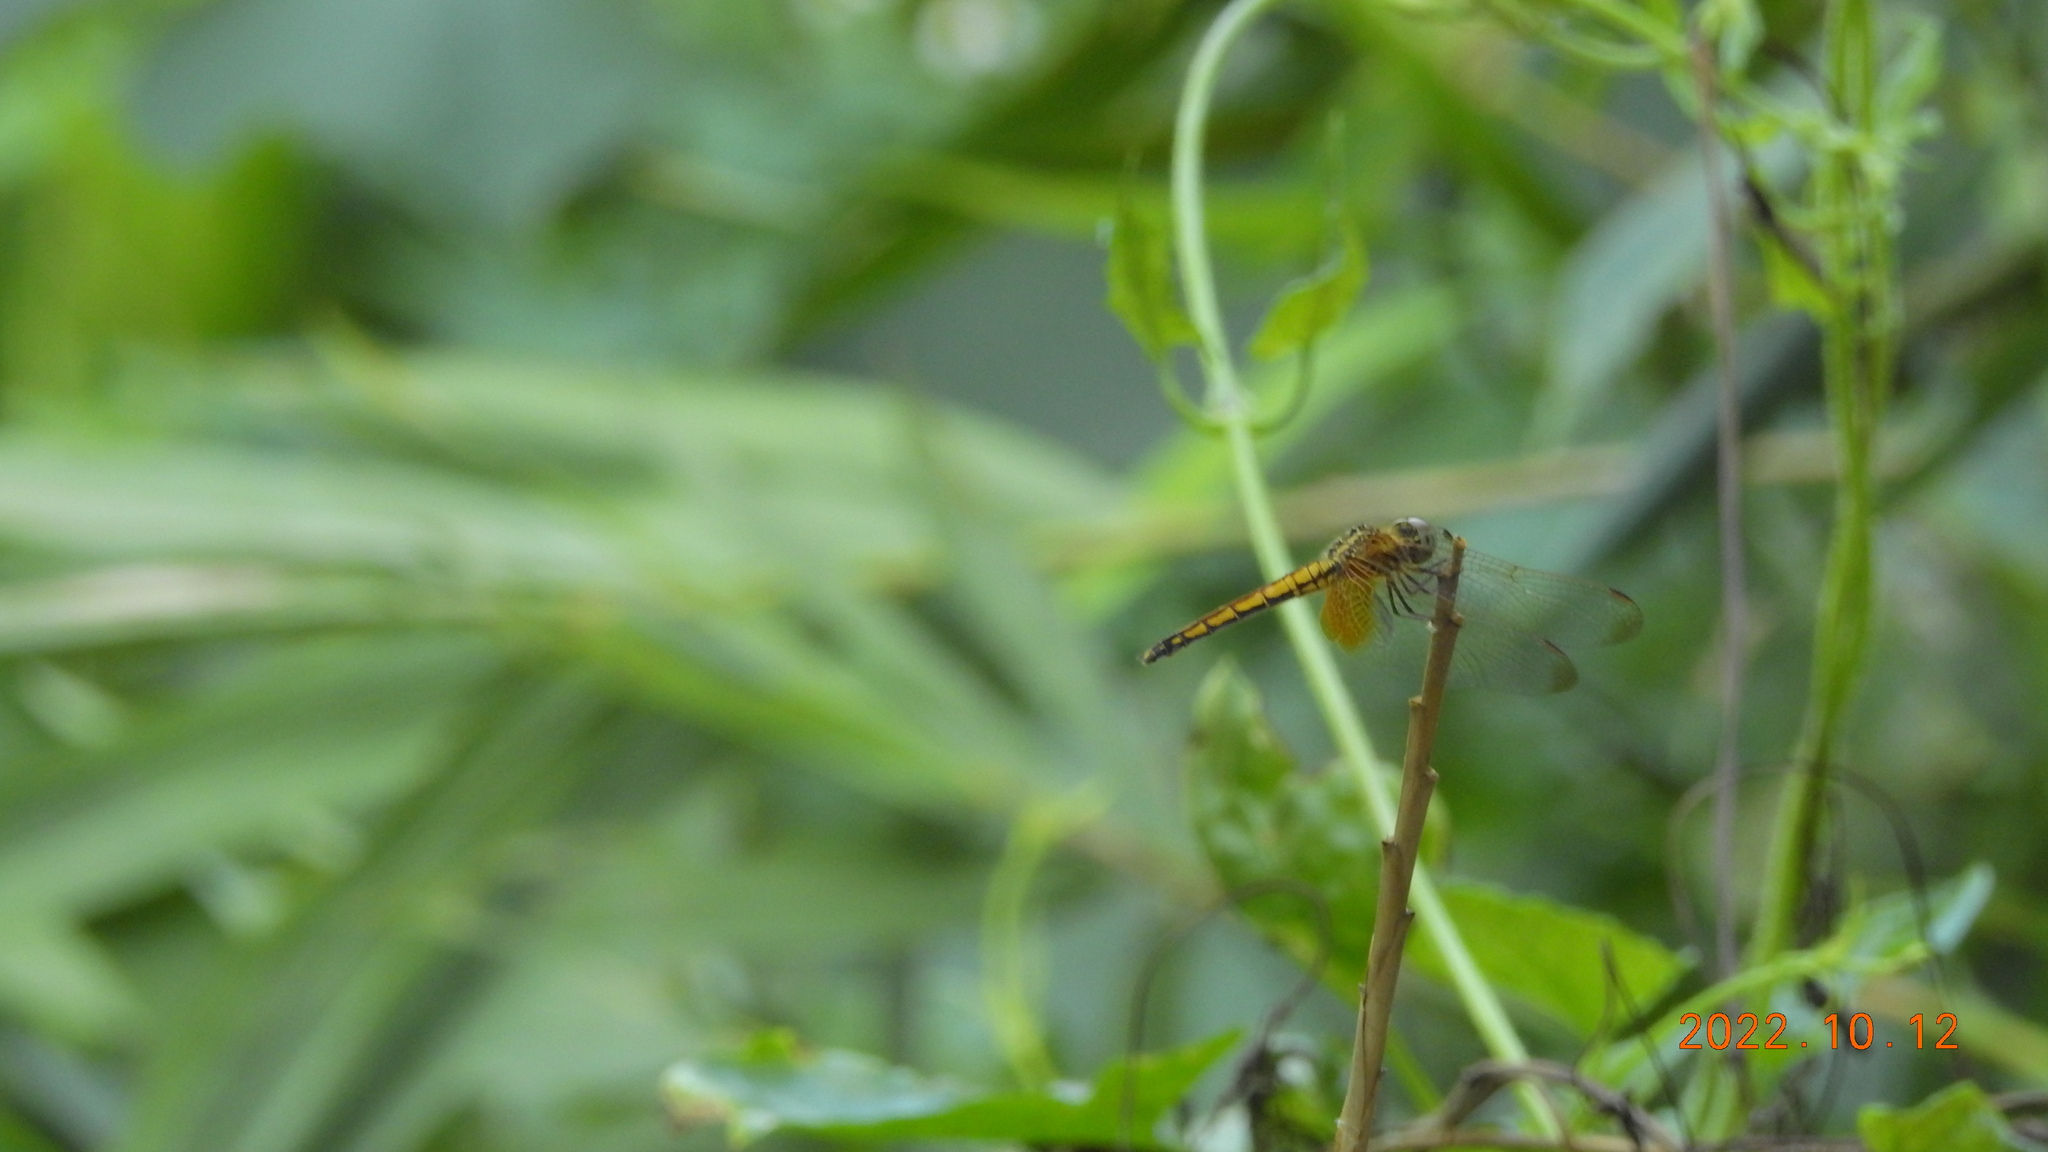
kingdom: Animalia
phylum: Arthropoda
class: Insecta
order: Odonata
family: Libellulidae
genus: Trithemis
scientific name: Trithemis aurora
